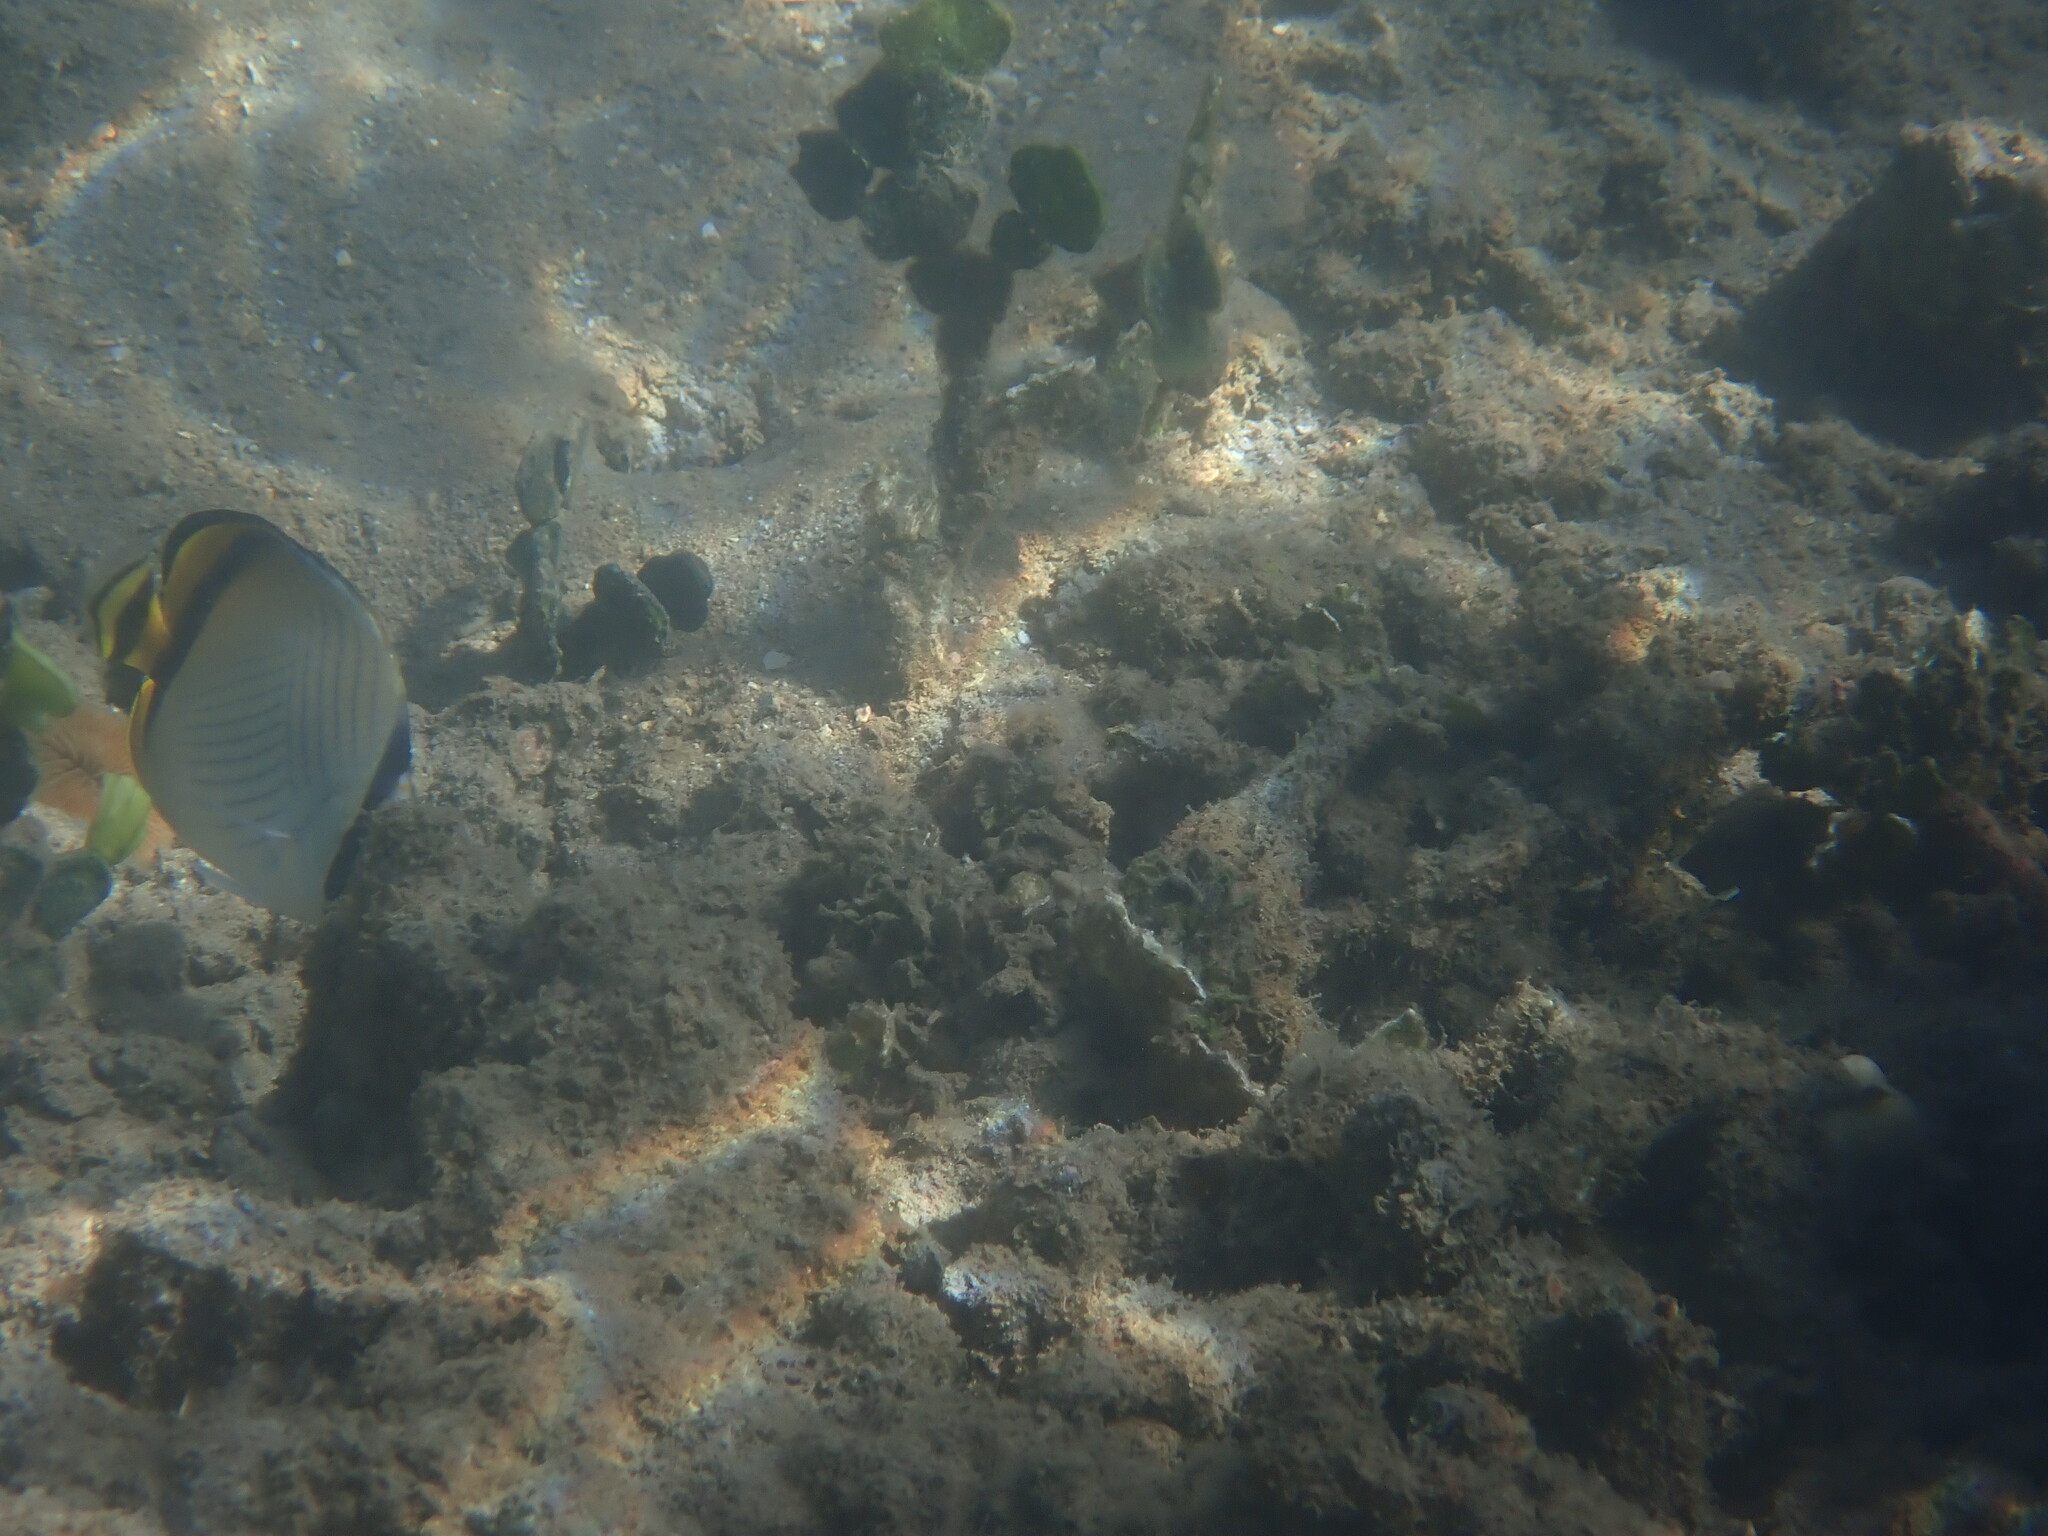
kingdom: Animalia
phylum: Chordata
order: Perciformes
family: Chaetodontidae
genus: Chaetodon
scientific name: Chaetodon vagabundus
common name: Vagabond butterflyfish
